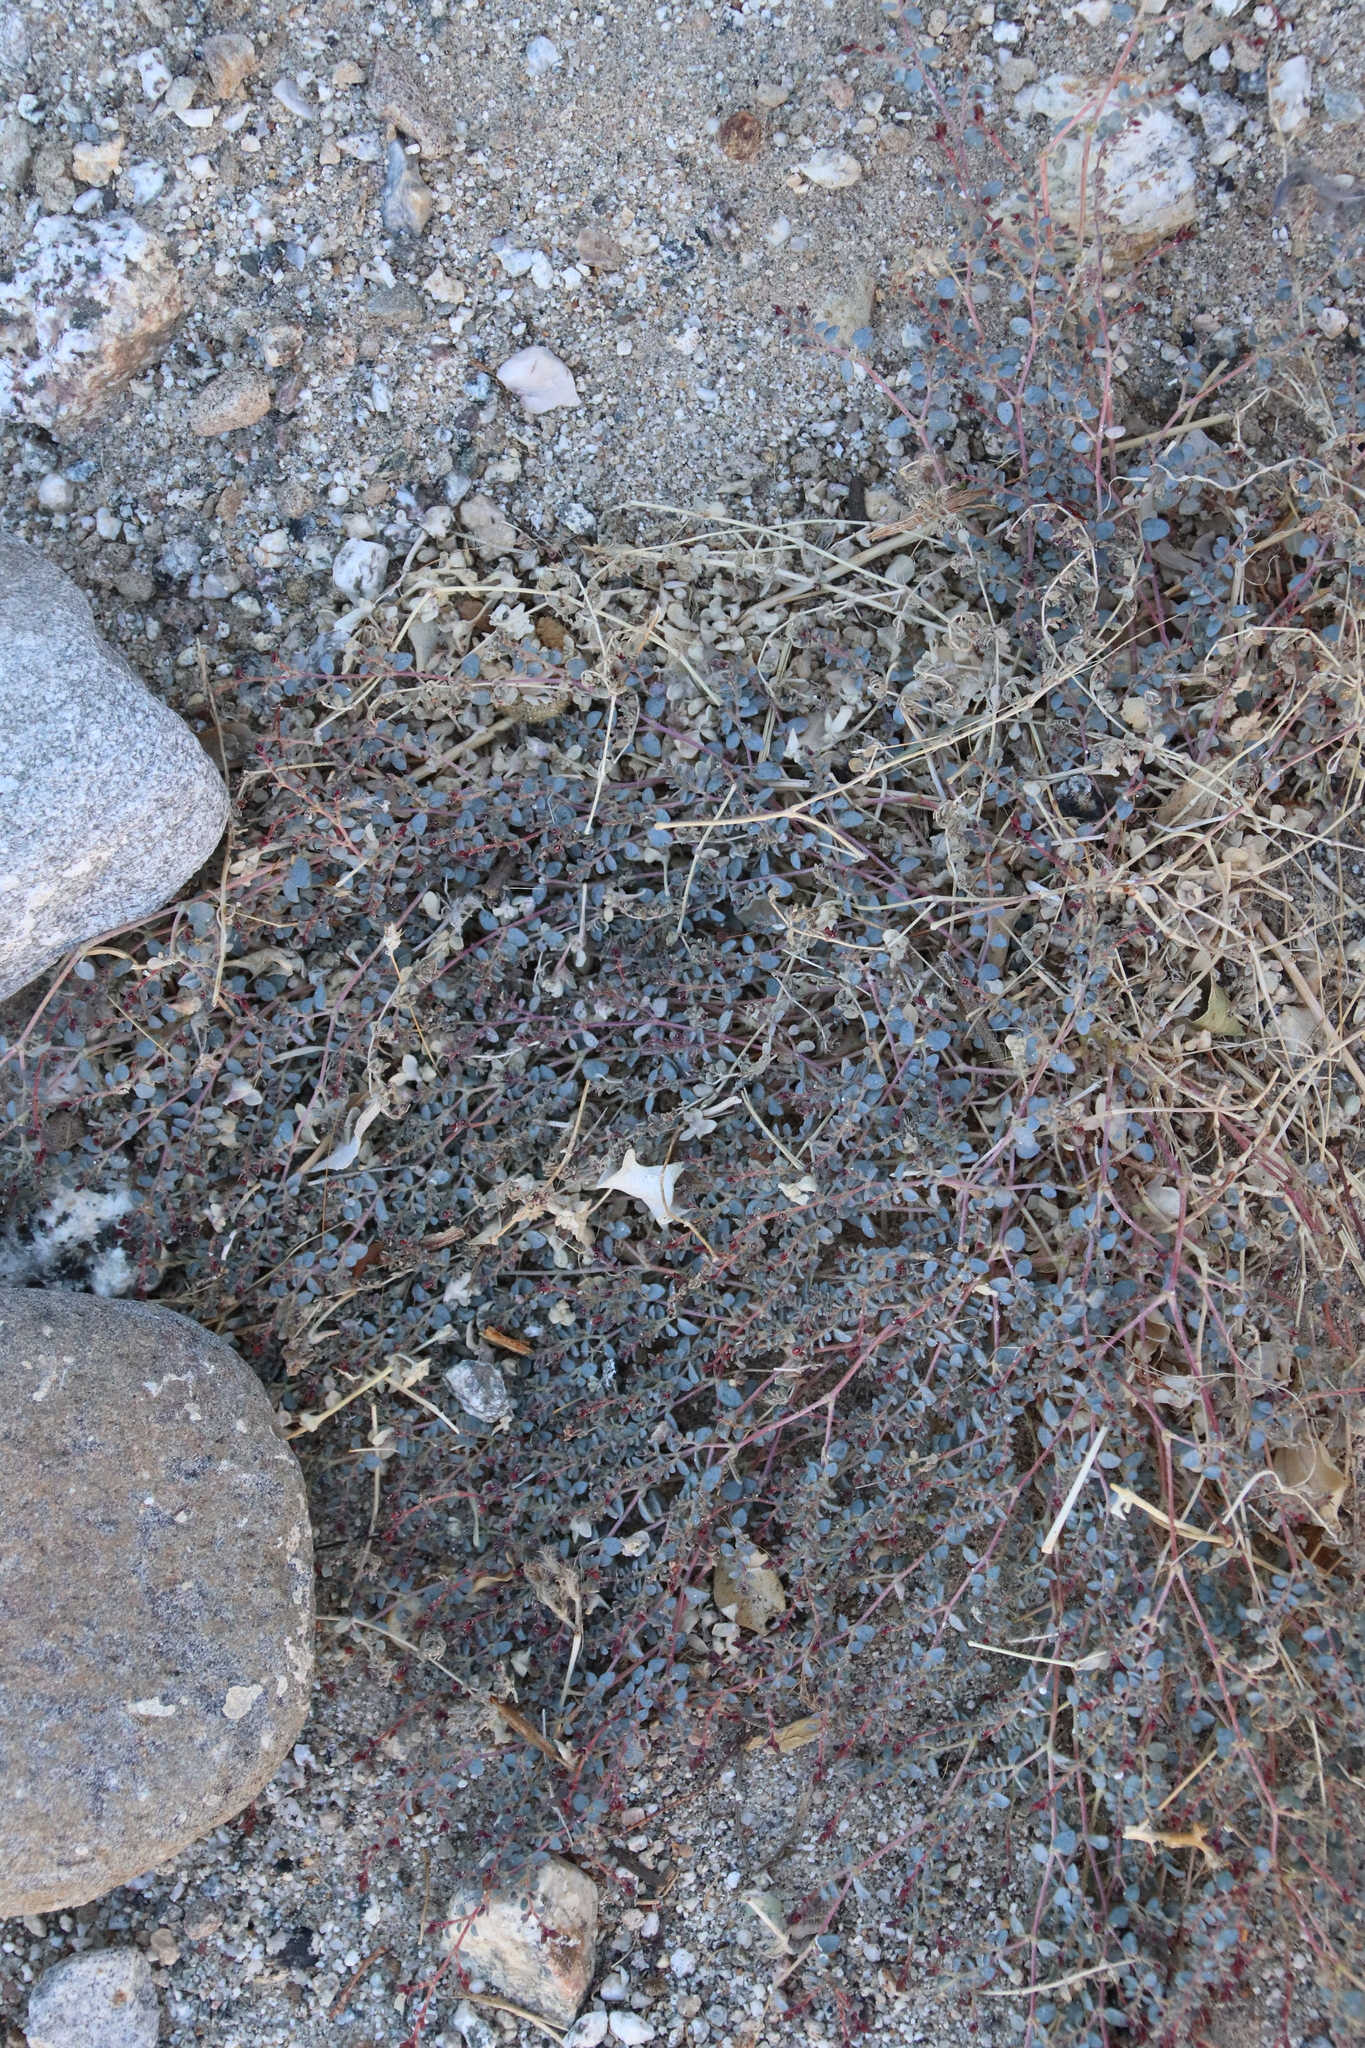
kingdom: Plantae
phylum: Tracheophyta
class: Magnoliopsida
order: Malpighiales
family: Euphorbiaceae
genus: Euphorbia
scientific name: Euphorbia polycarpa
